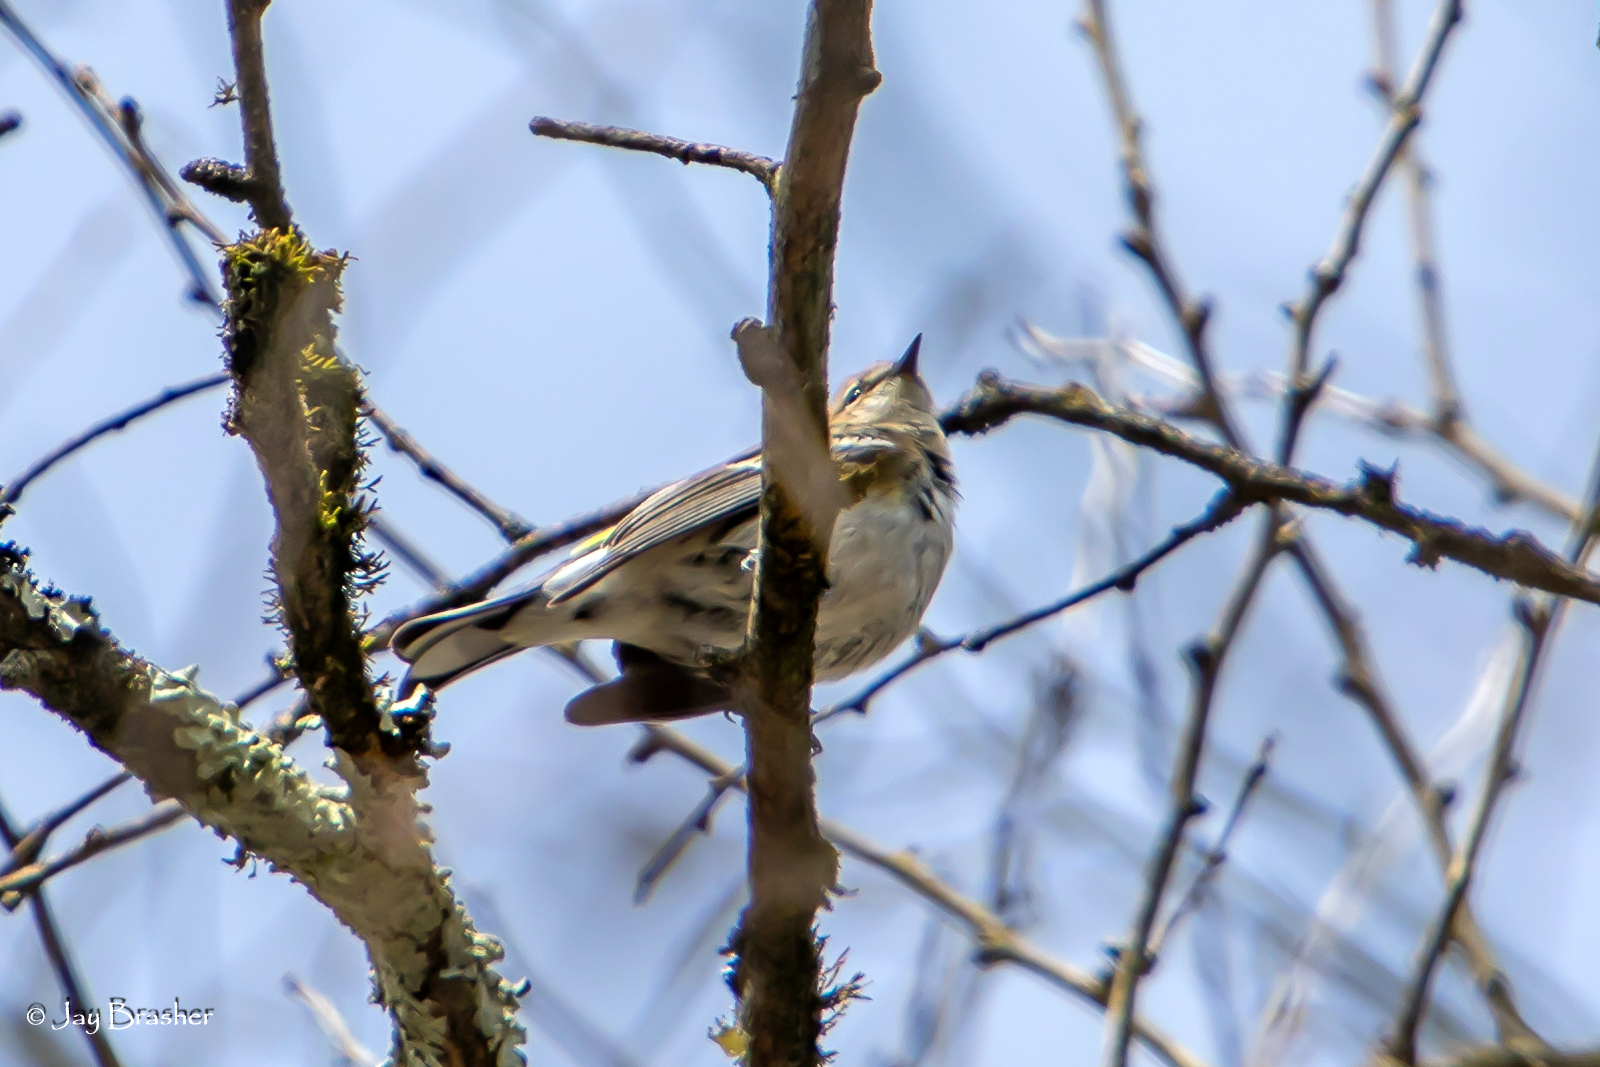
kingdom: Animalia
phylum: Chordata
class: Aves
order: Passeriformes
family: Parulidae
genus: Setophaga
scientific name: Setophaga coronata
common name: Myrtle warbler
